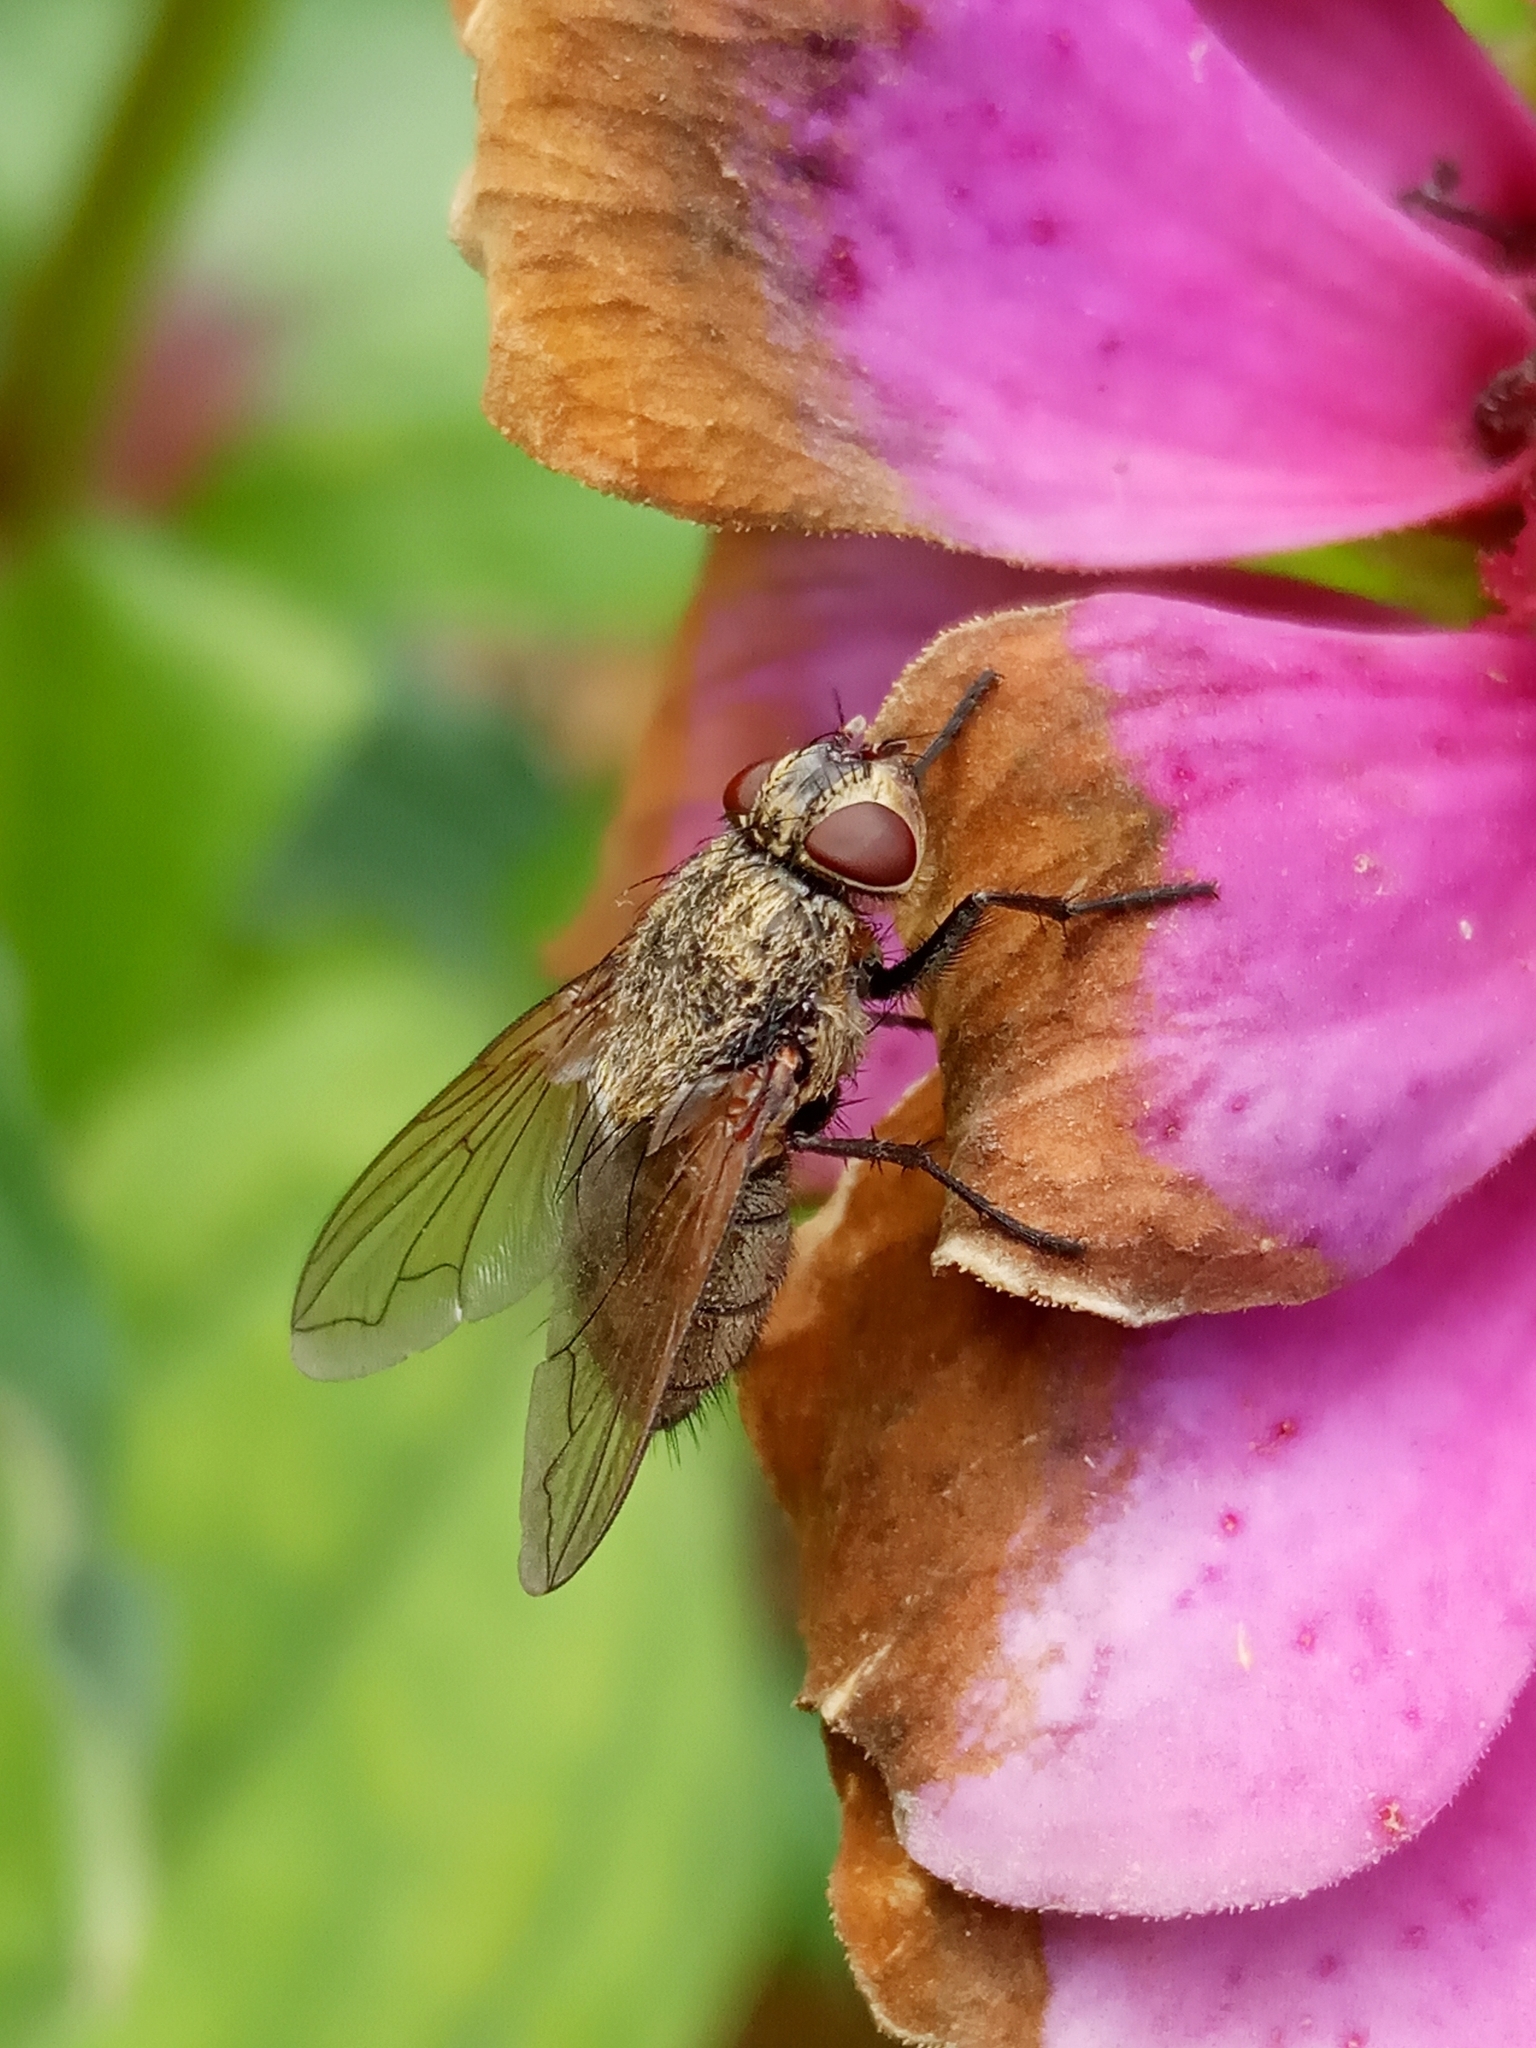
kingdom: Animalia
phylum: Arthropoda
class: Insecta
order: Diptera
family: Polleniidae
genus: Pollenia
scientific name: Pollenia
